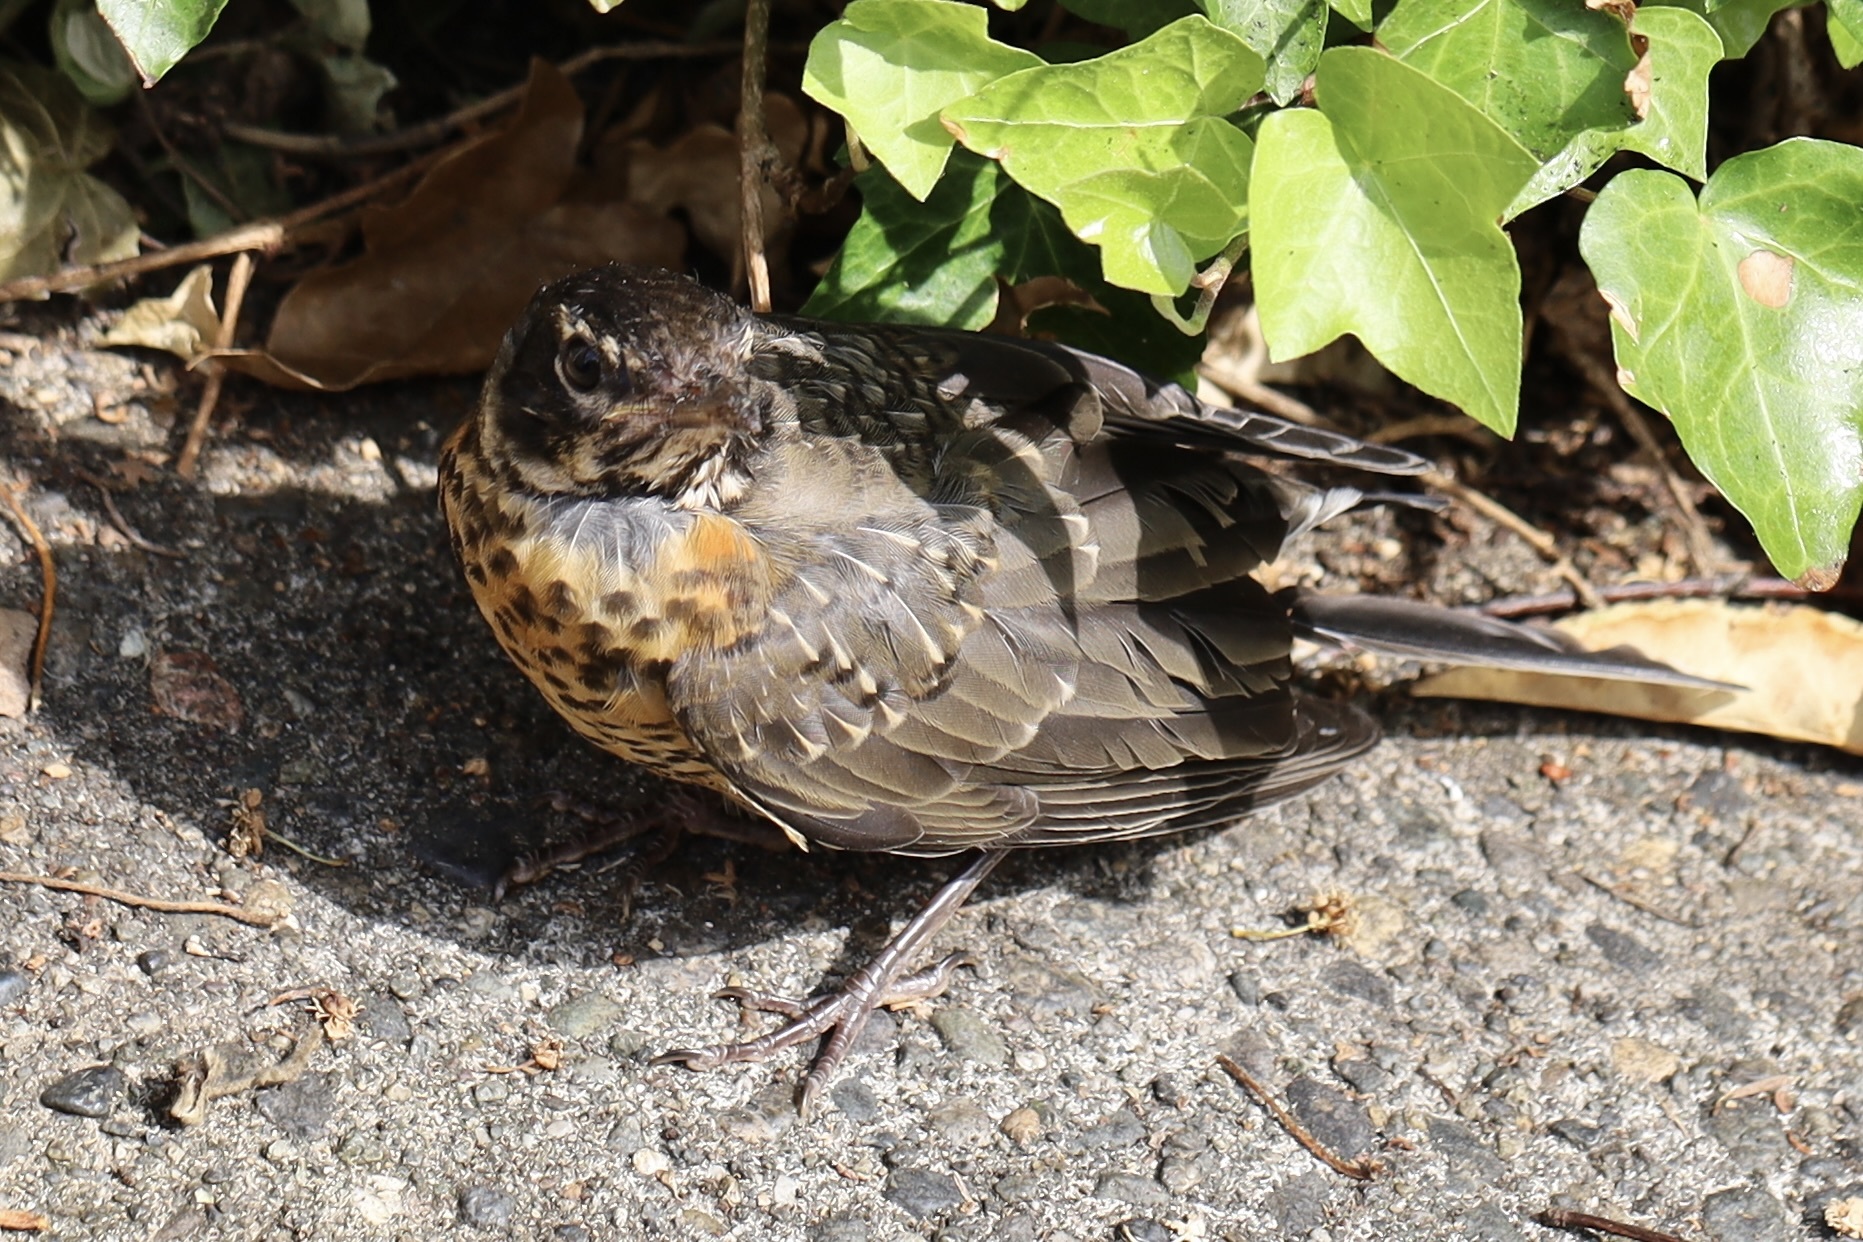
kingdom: Animalia
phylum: Chordata
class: Aves
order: Passeriformes
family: Turdidae
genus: Turdus
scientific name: Turdus migratorius
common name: American robin
